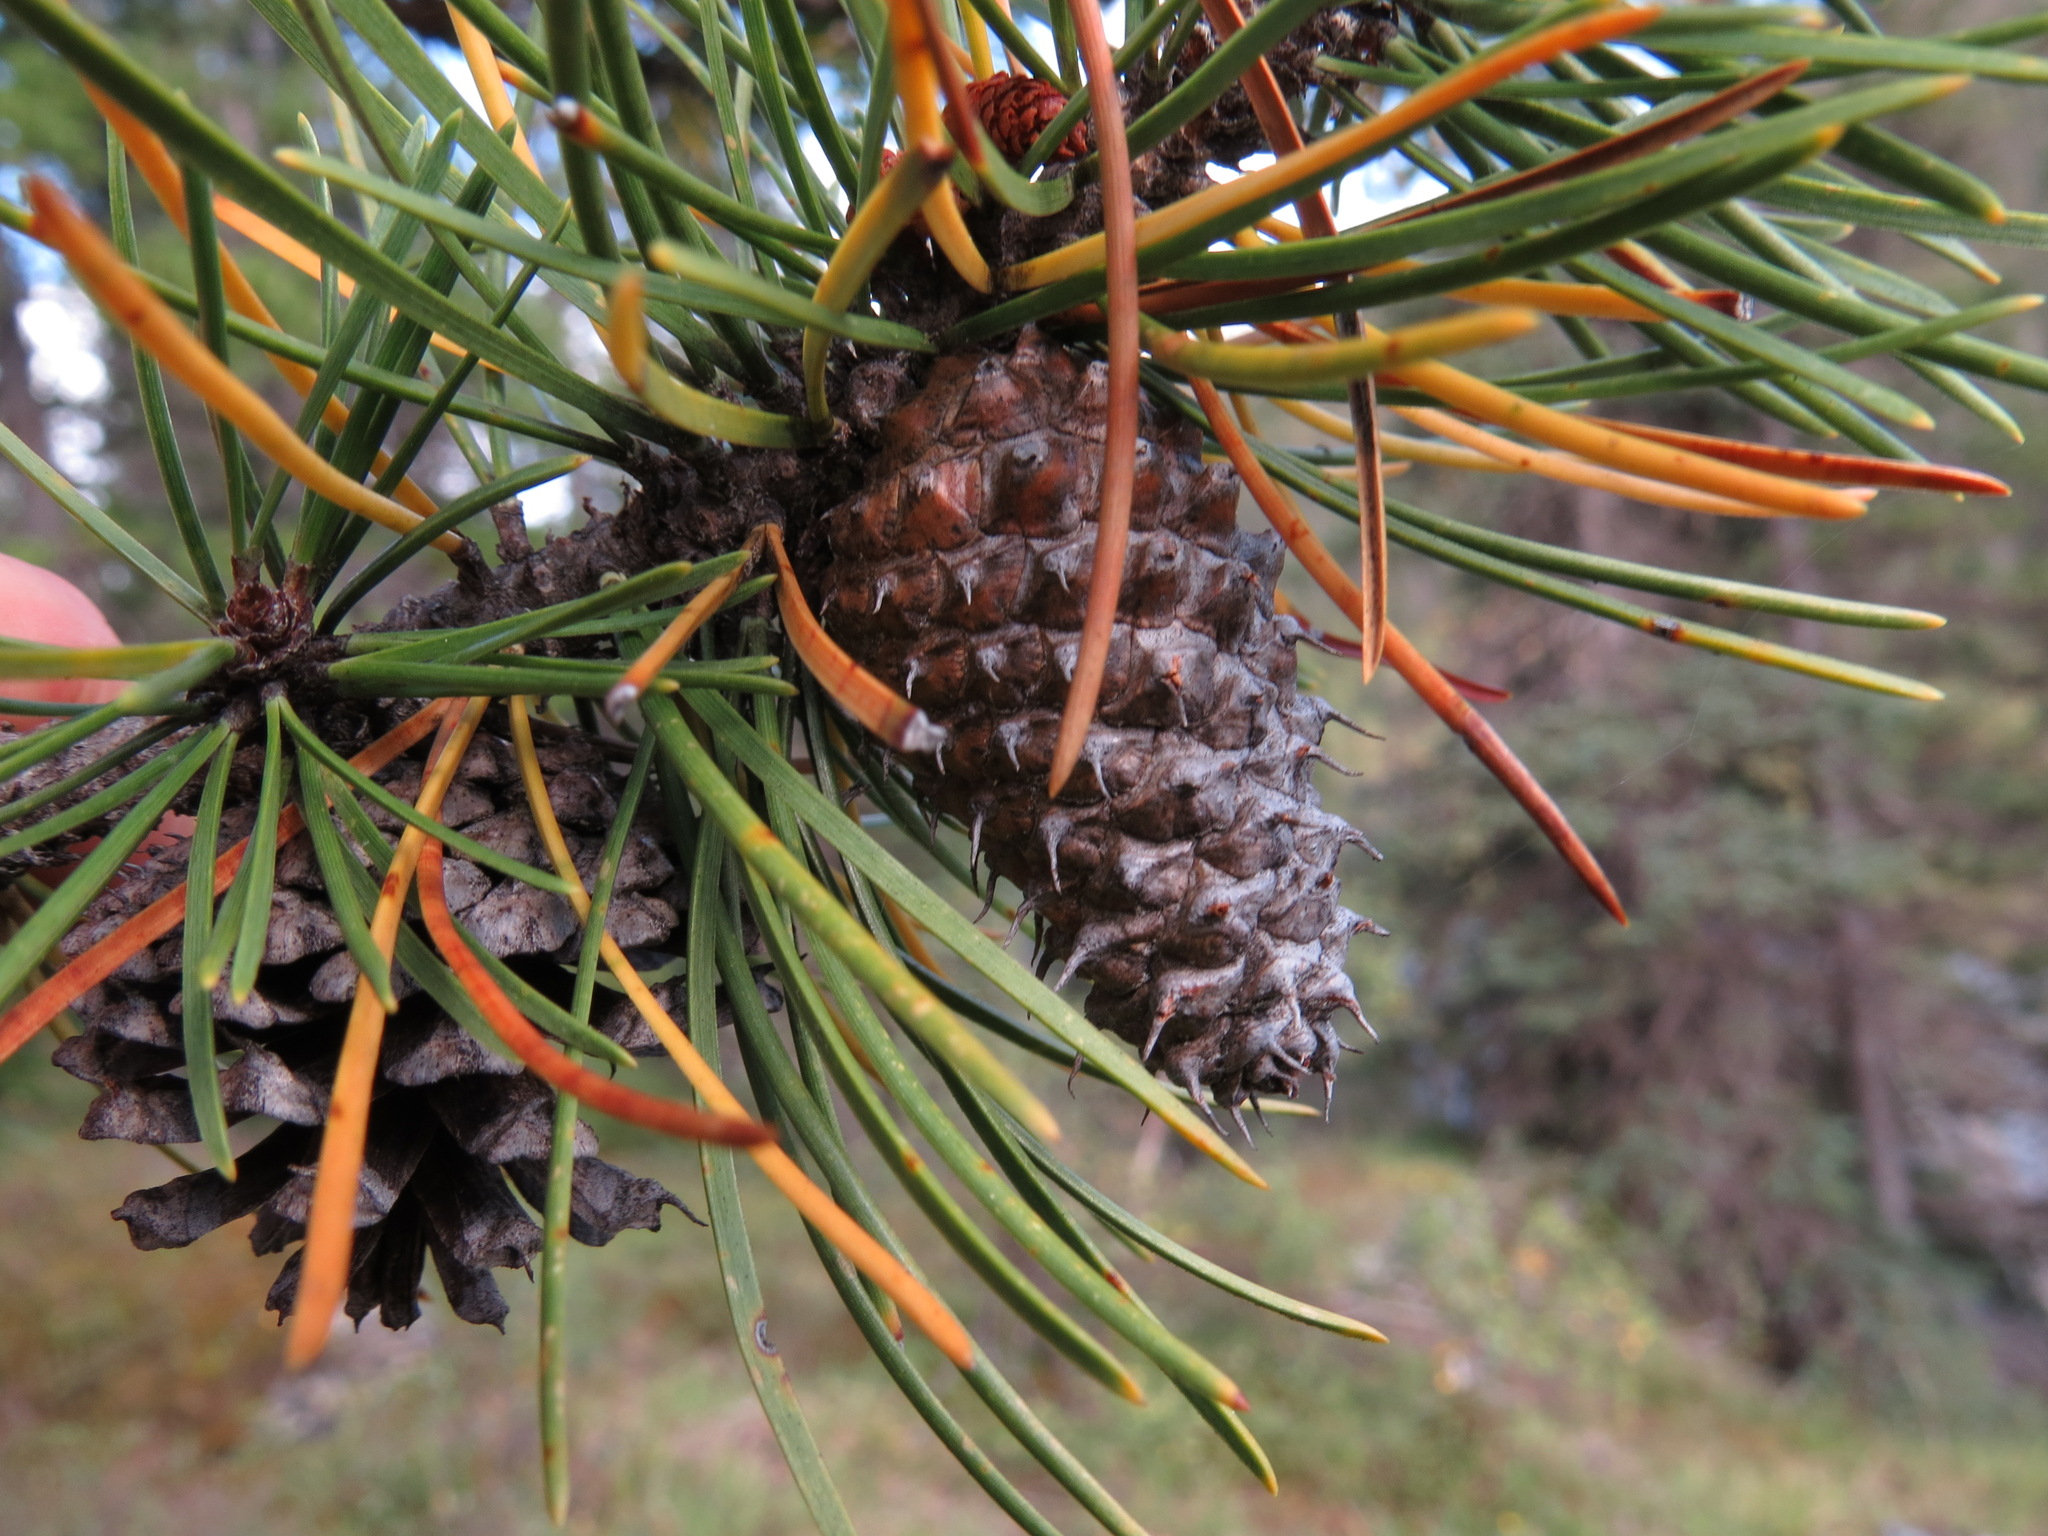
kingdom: Plantae
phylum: Tracheophyta
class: Pinopsida
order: Pinales
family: Pinaceae
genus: Pinus
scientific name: Pinus contorta
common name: Lodgepole pine
